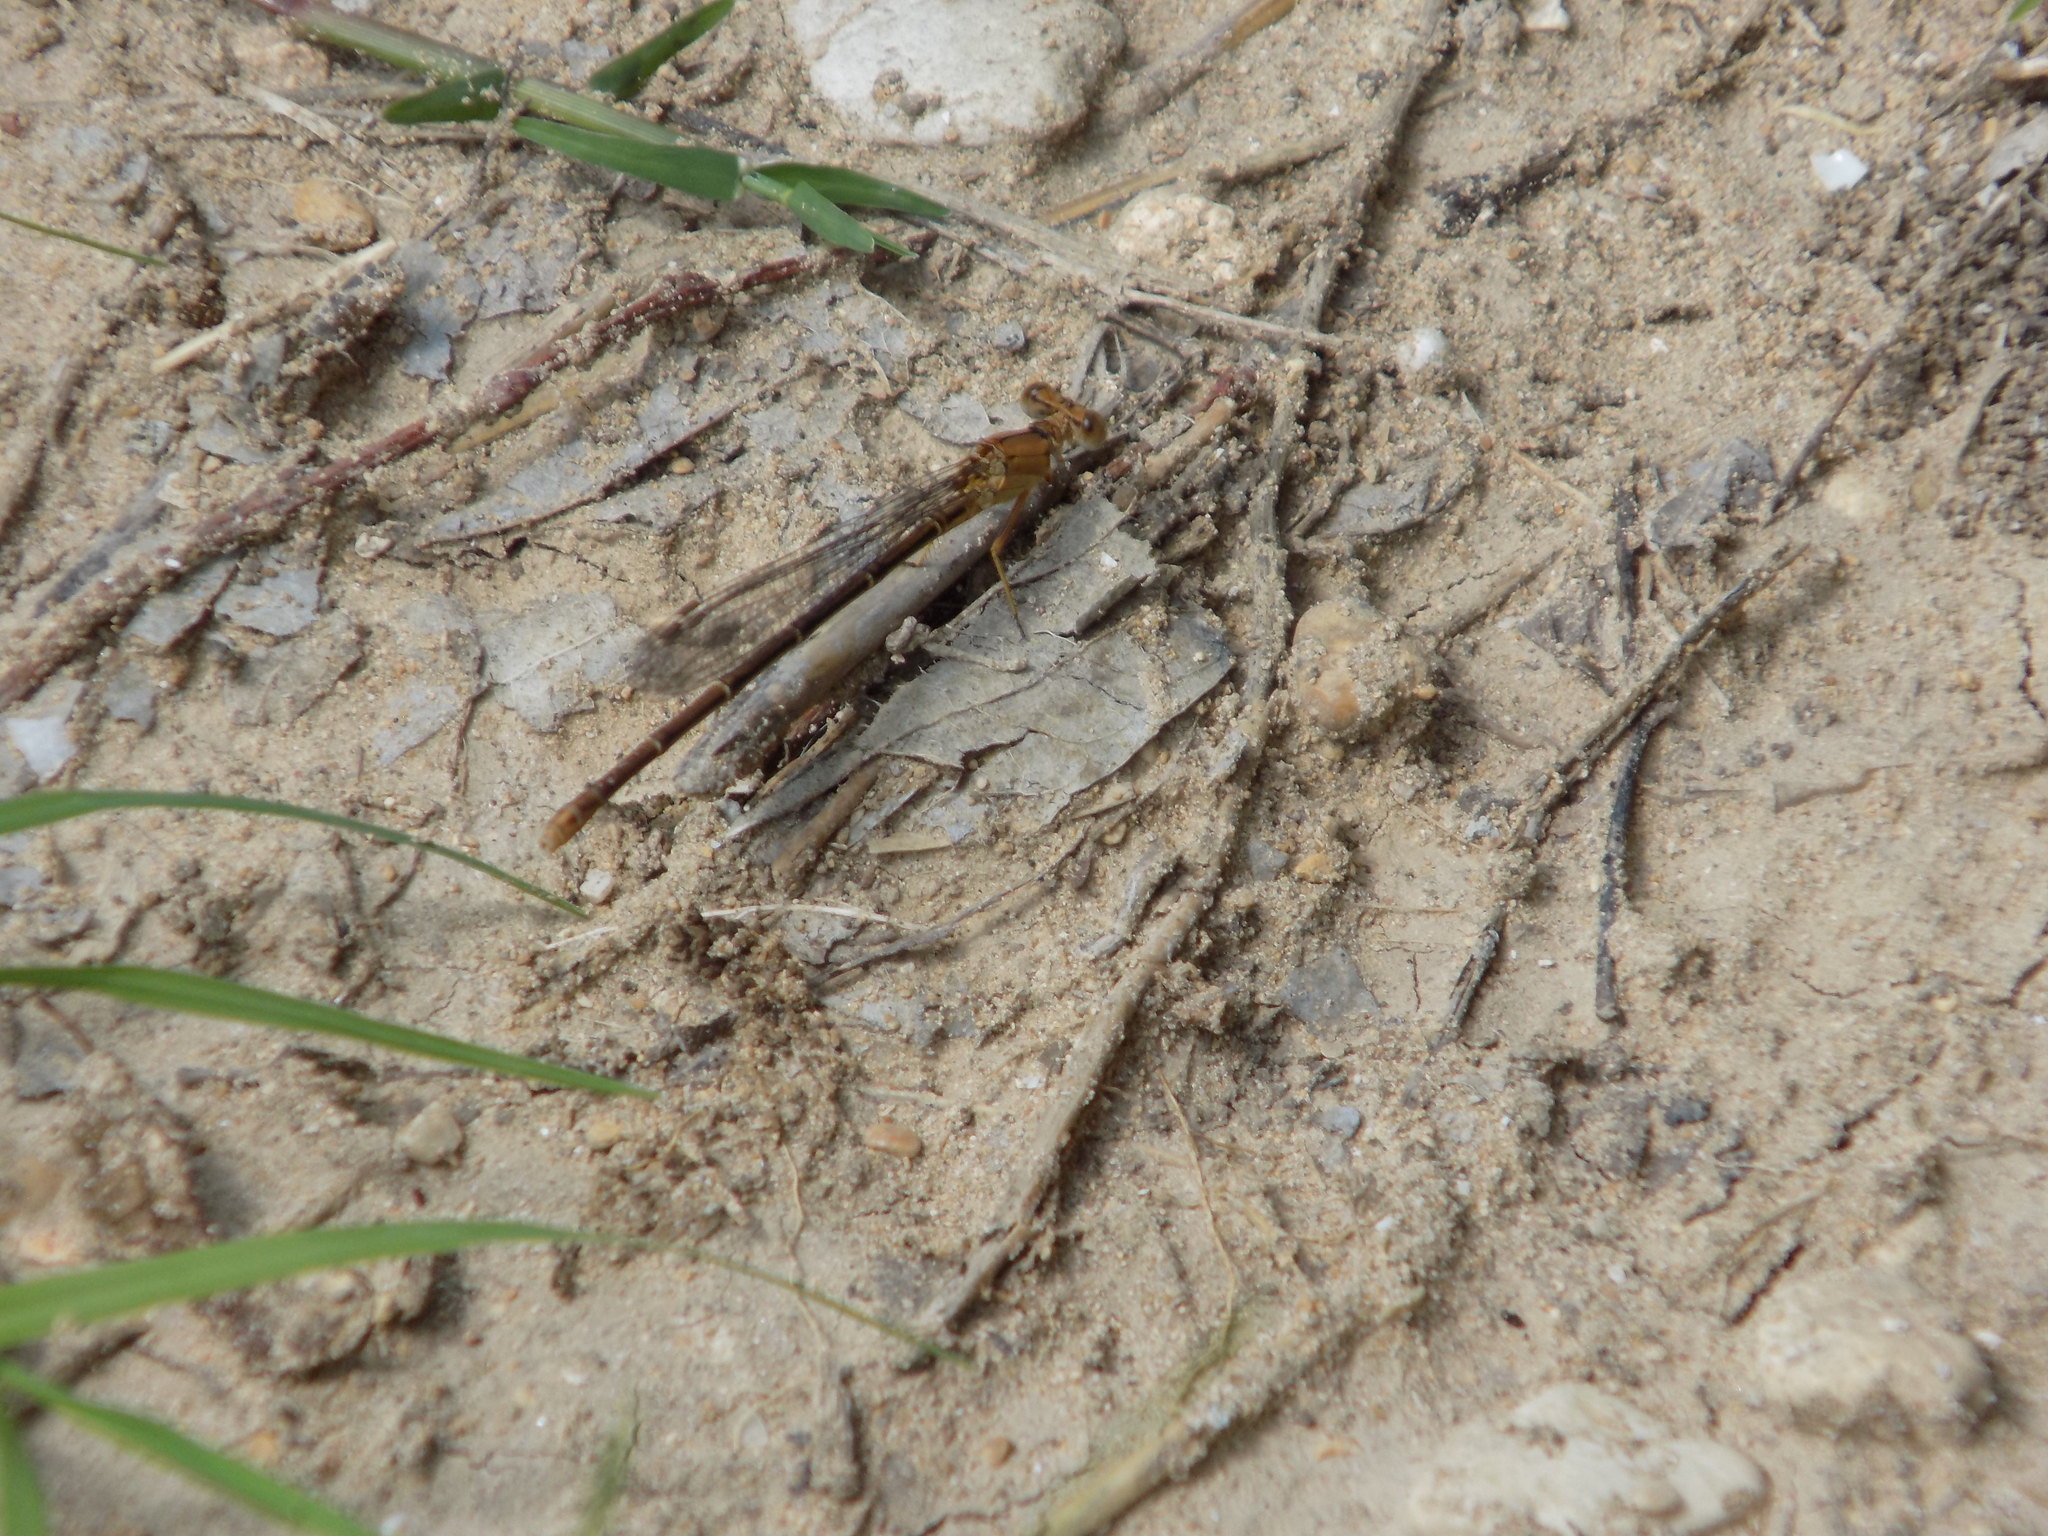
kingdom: Animalia
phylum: Arthropoda
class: Insecta
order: Odonata
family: Coenagrionidae
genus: Argia
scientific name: Argia moesta
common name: Powdered dancer
